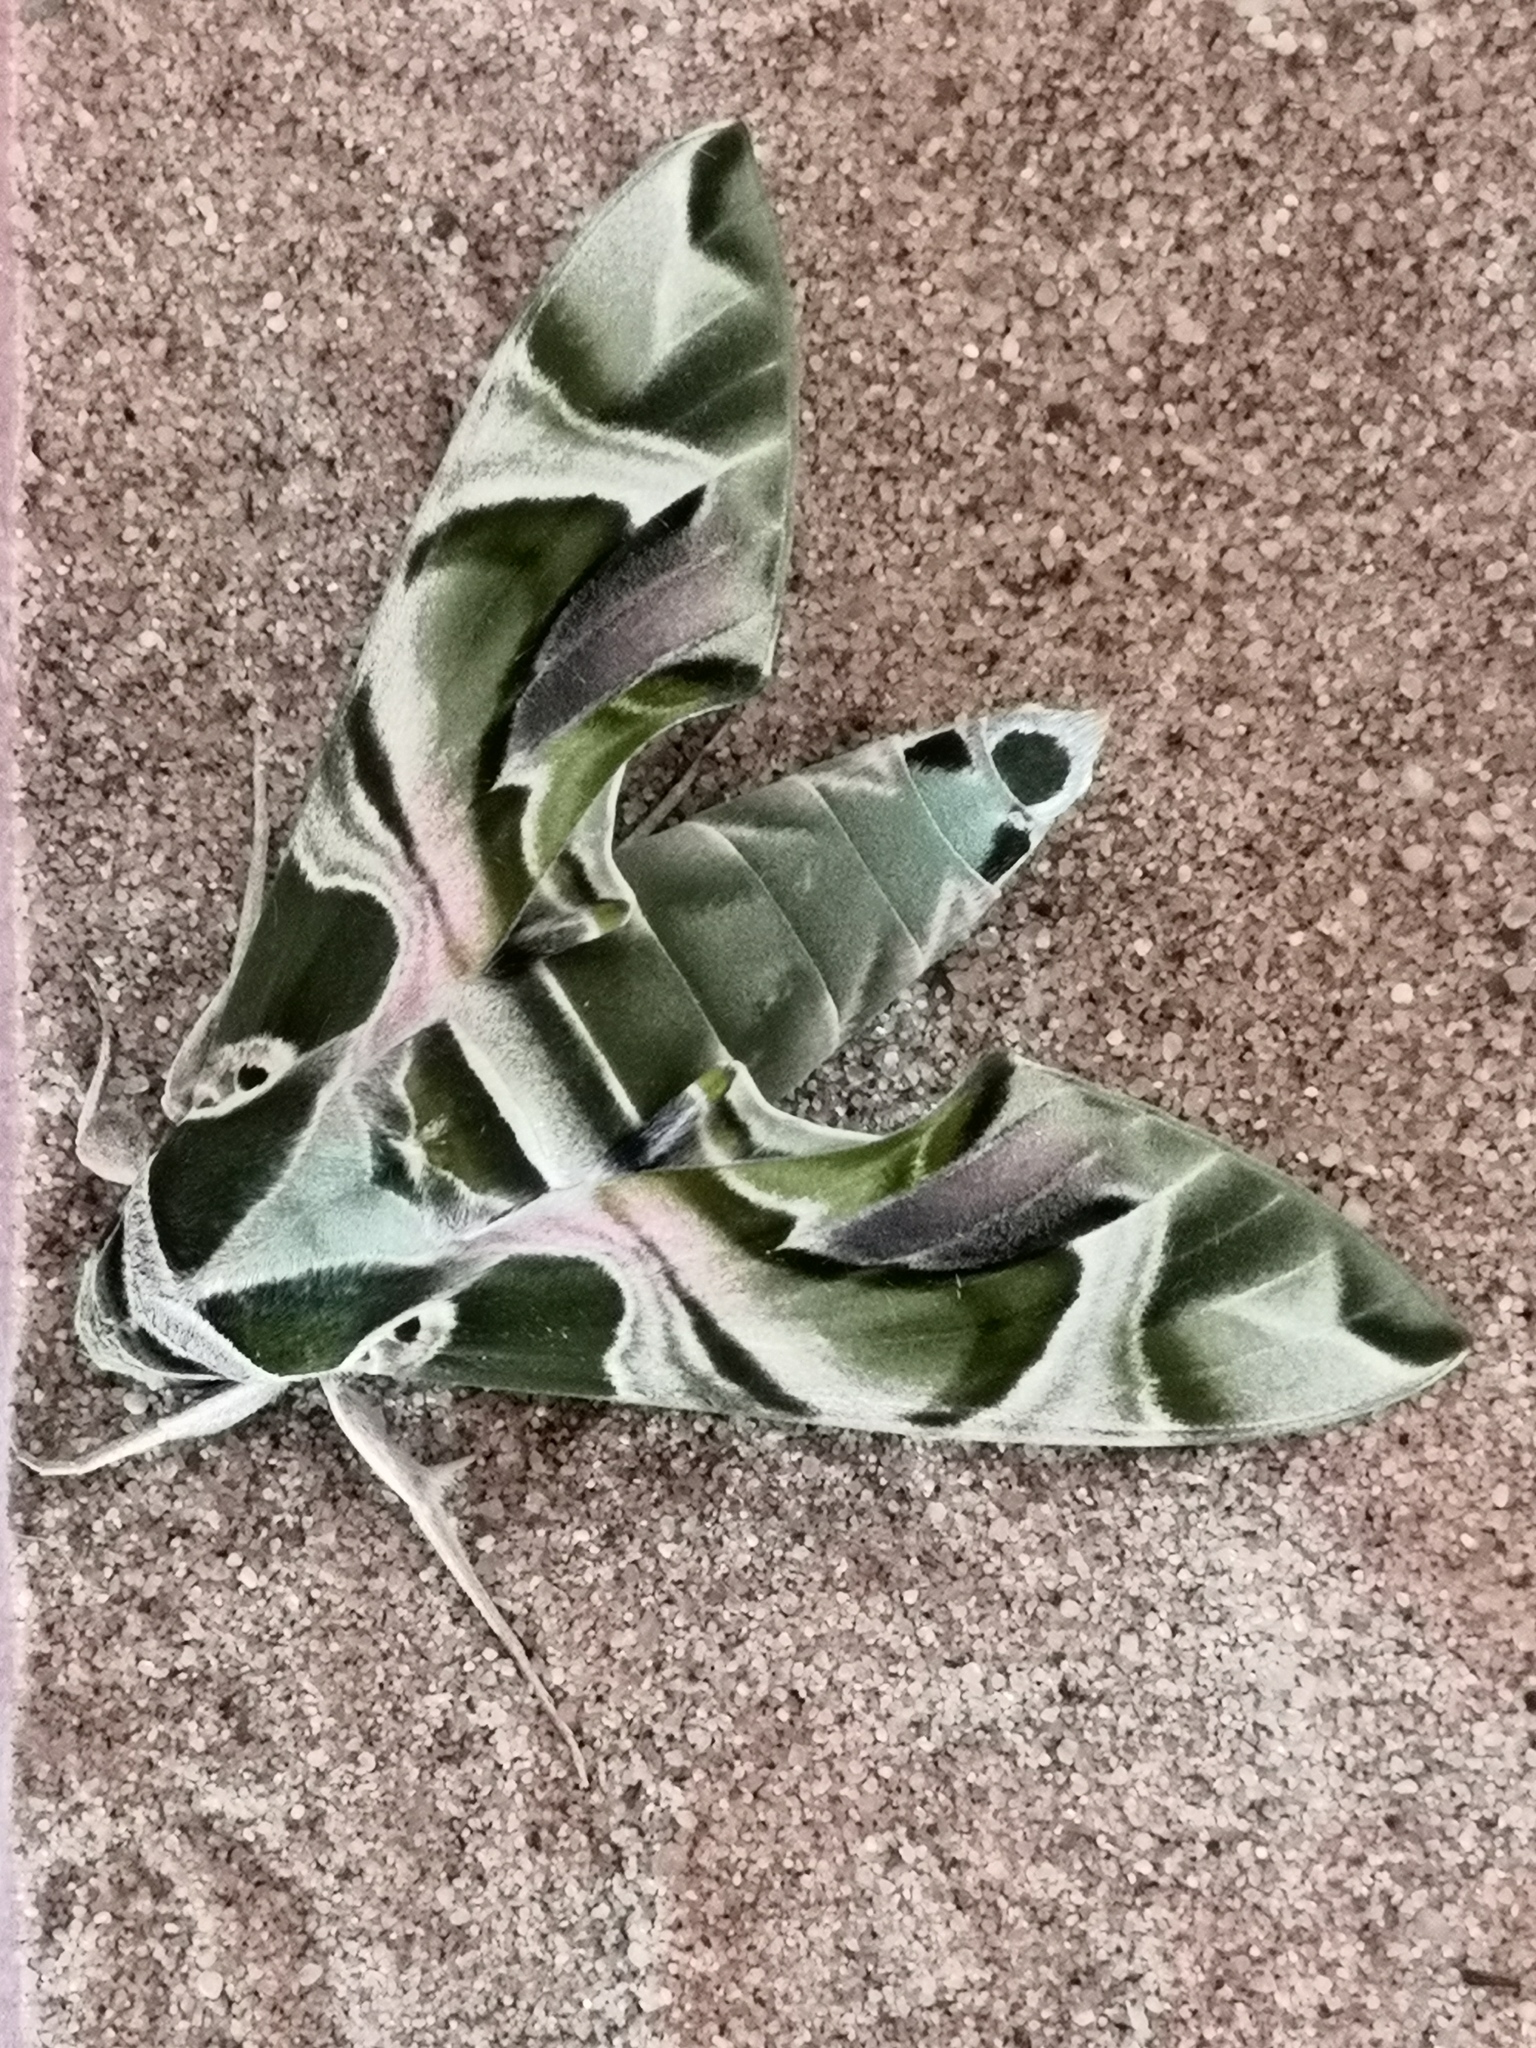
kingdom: Animalia
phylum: Arthropoda
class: Insecta
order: Lepidoptera
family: Sphingidae
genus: Daphnis
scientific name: Daphnis nerii
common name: Oleander hawk-moth
